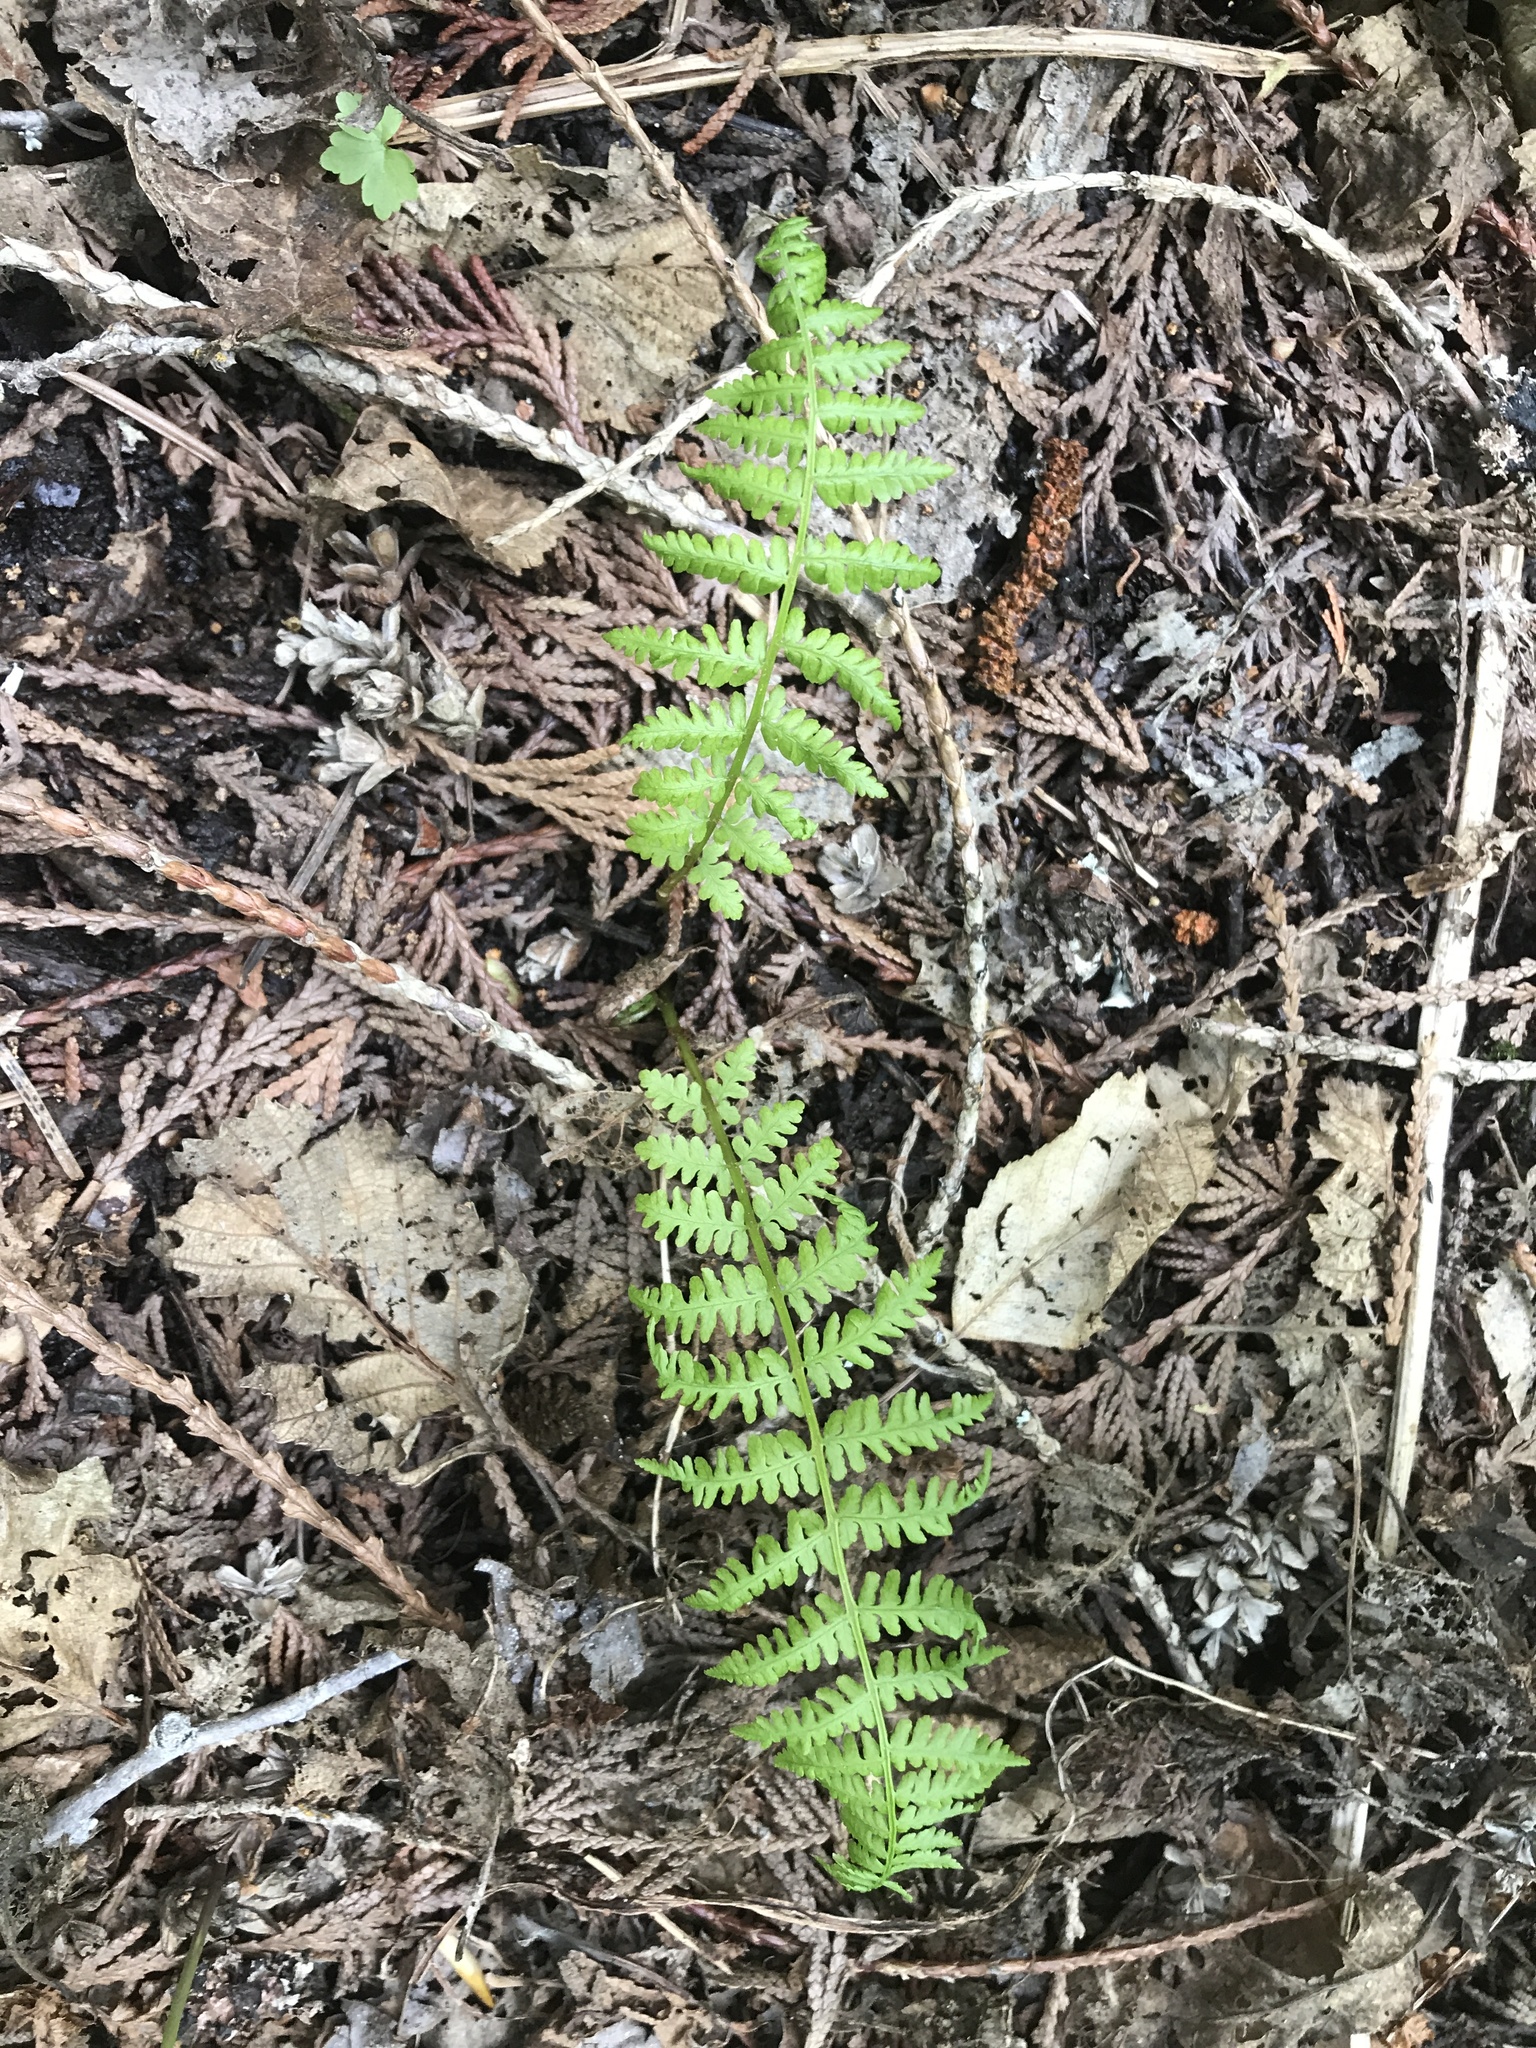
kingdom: Plantae
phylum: Tracheophyta
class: Polypodiopsida
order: Polypodiales
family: Athyriaceae
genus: Athyrium
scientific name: Athyrium cyclosorum
